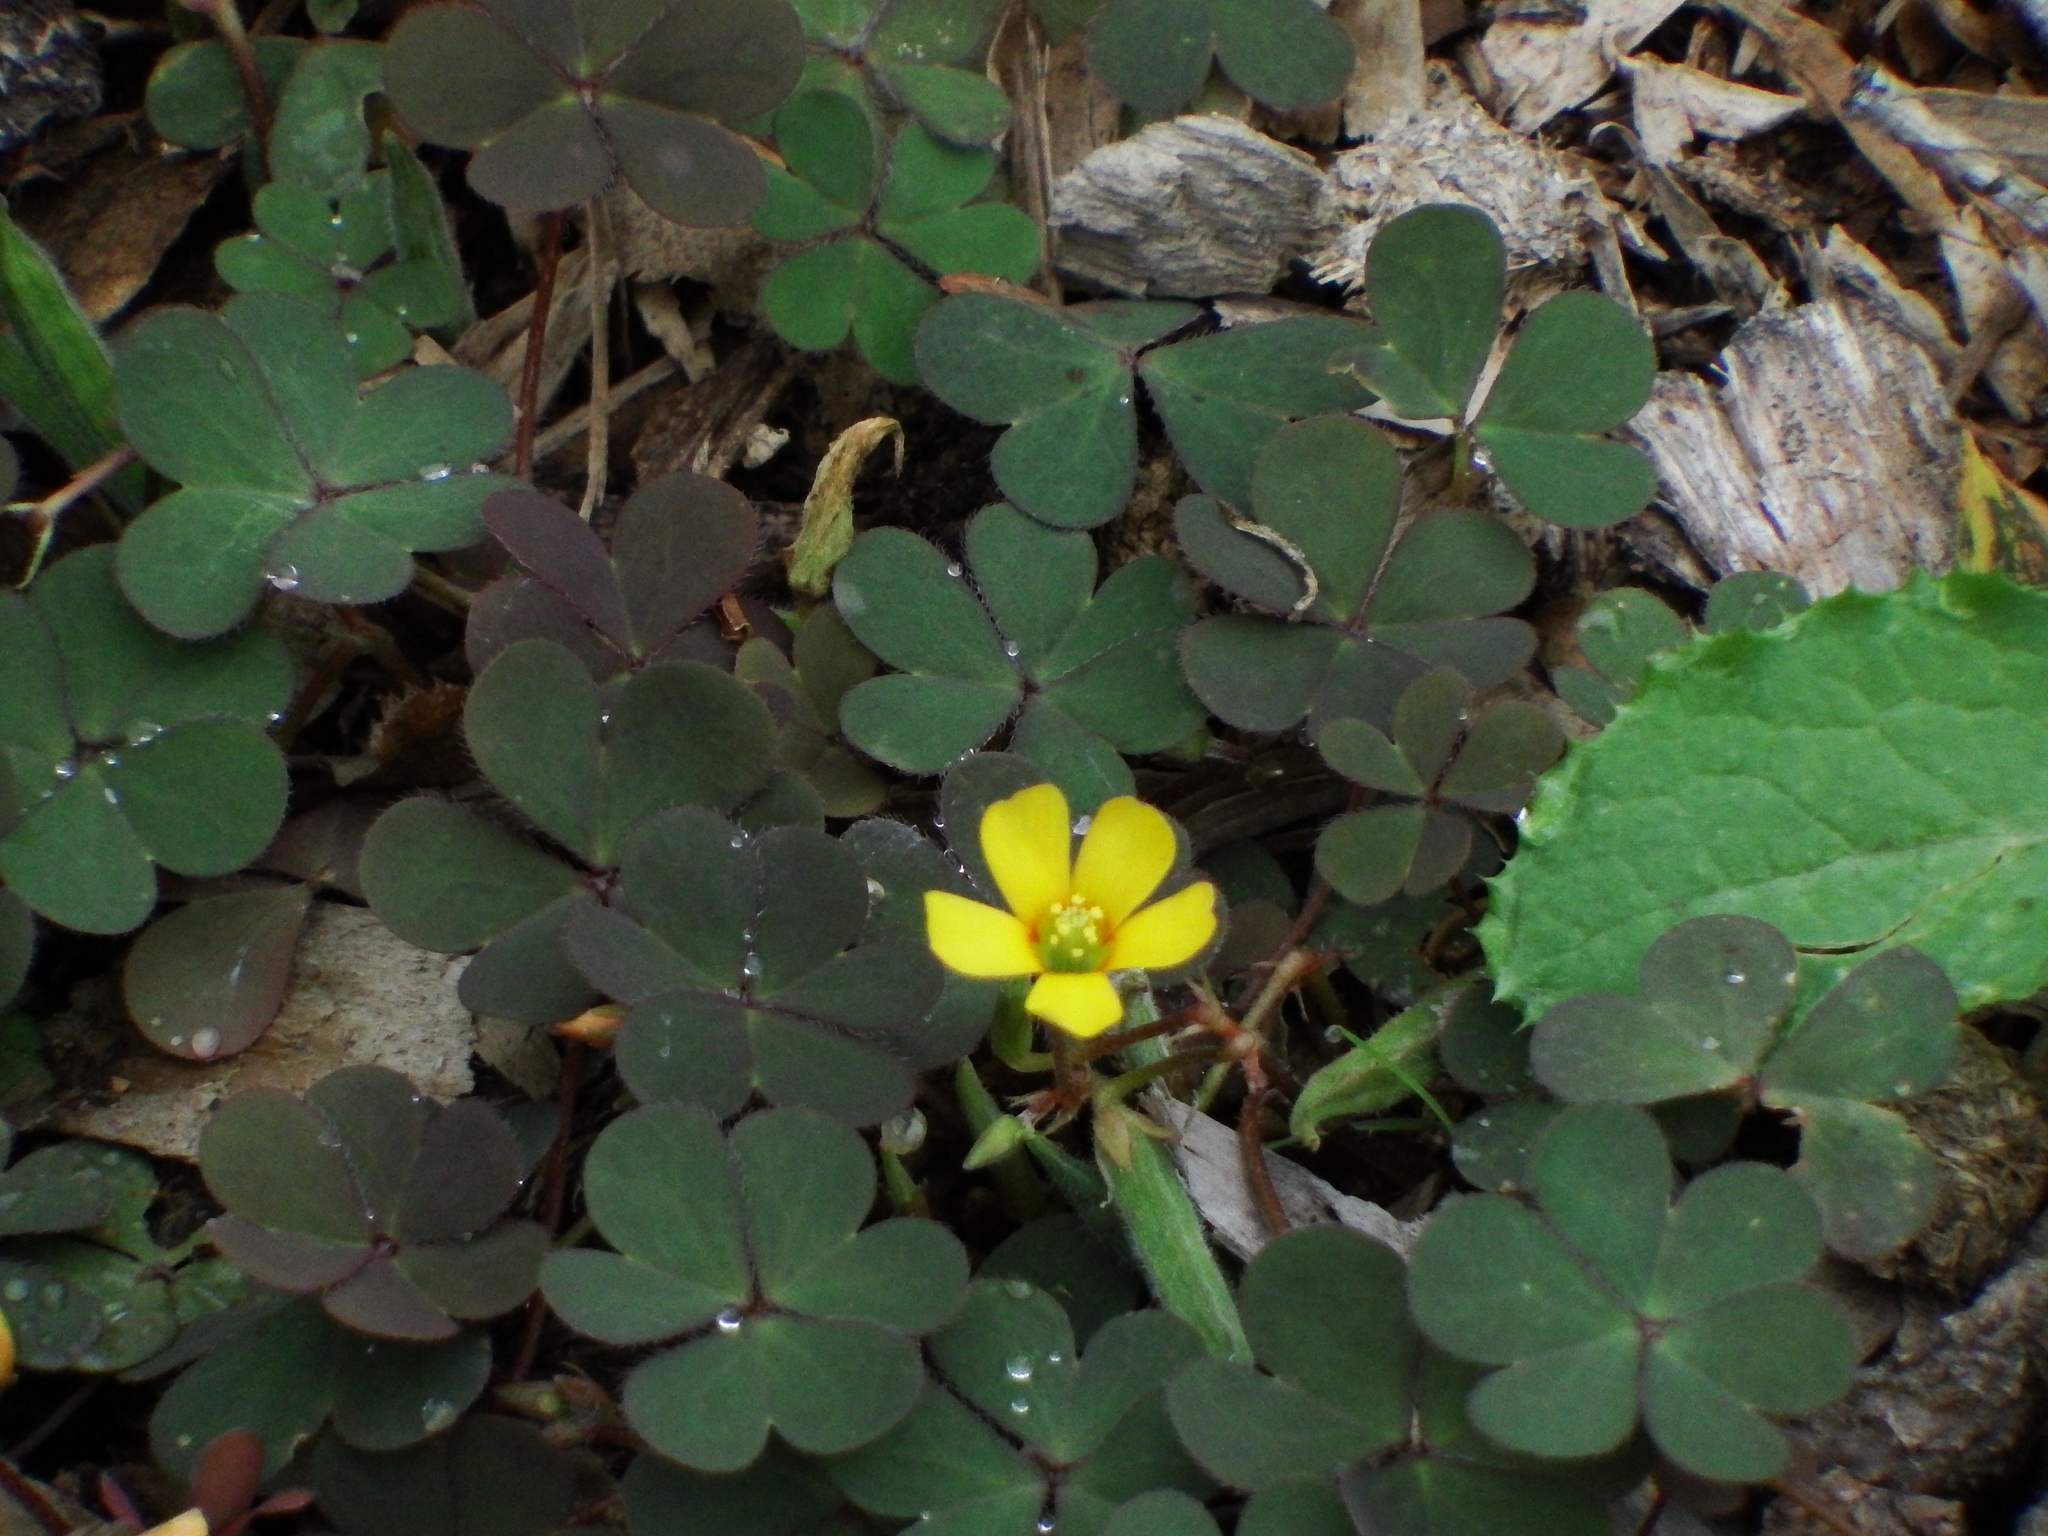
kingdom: Plantae
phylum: Tracheophyta
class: Magnoliopsida
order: Oxalidales
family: Oxalidaceae
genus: Oxalis
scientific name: Oxalis corniculata
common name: Procumbent yellow-sorrel
